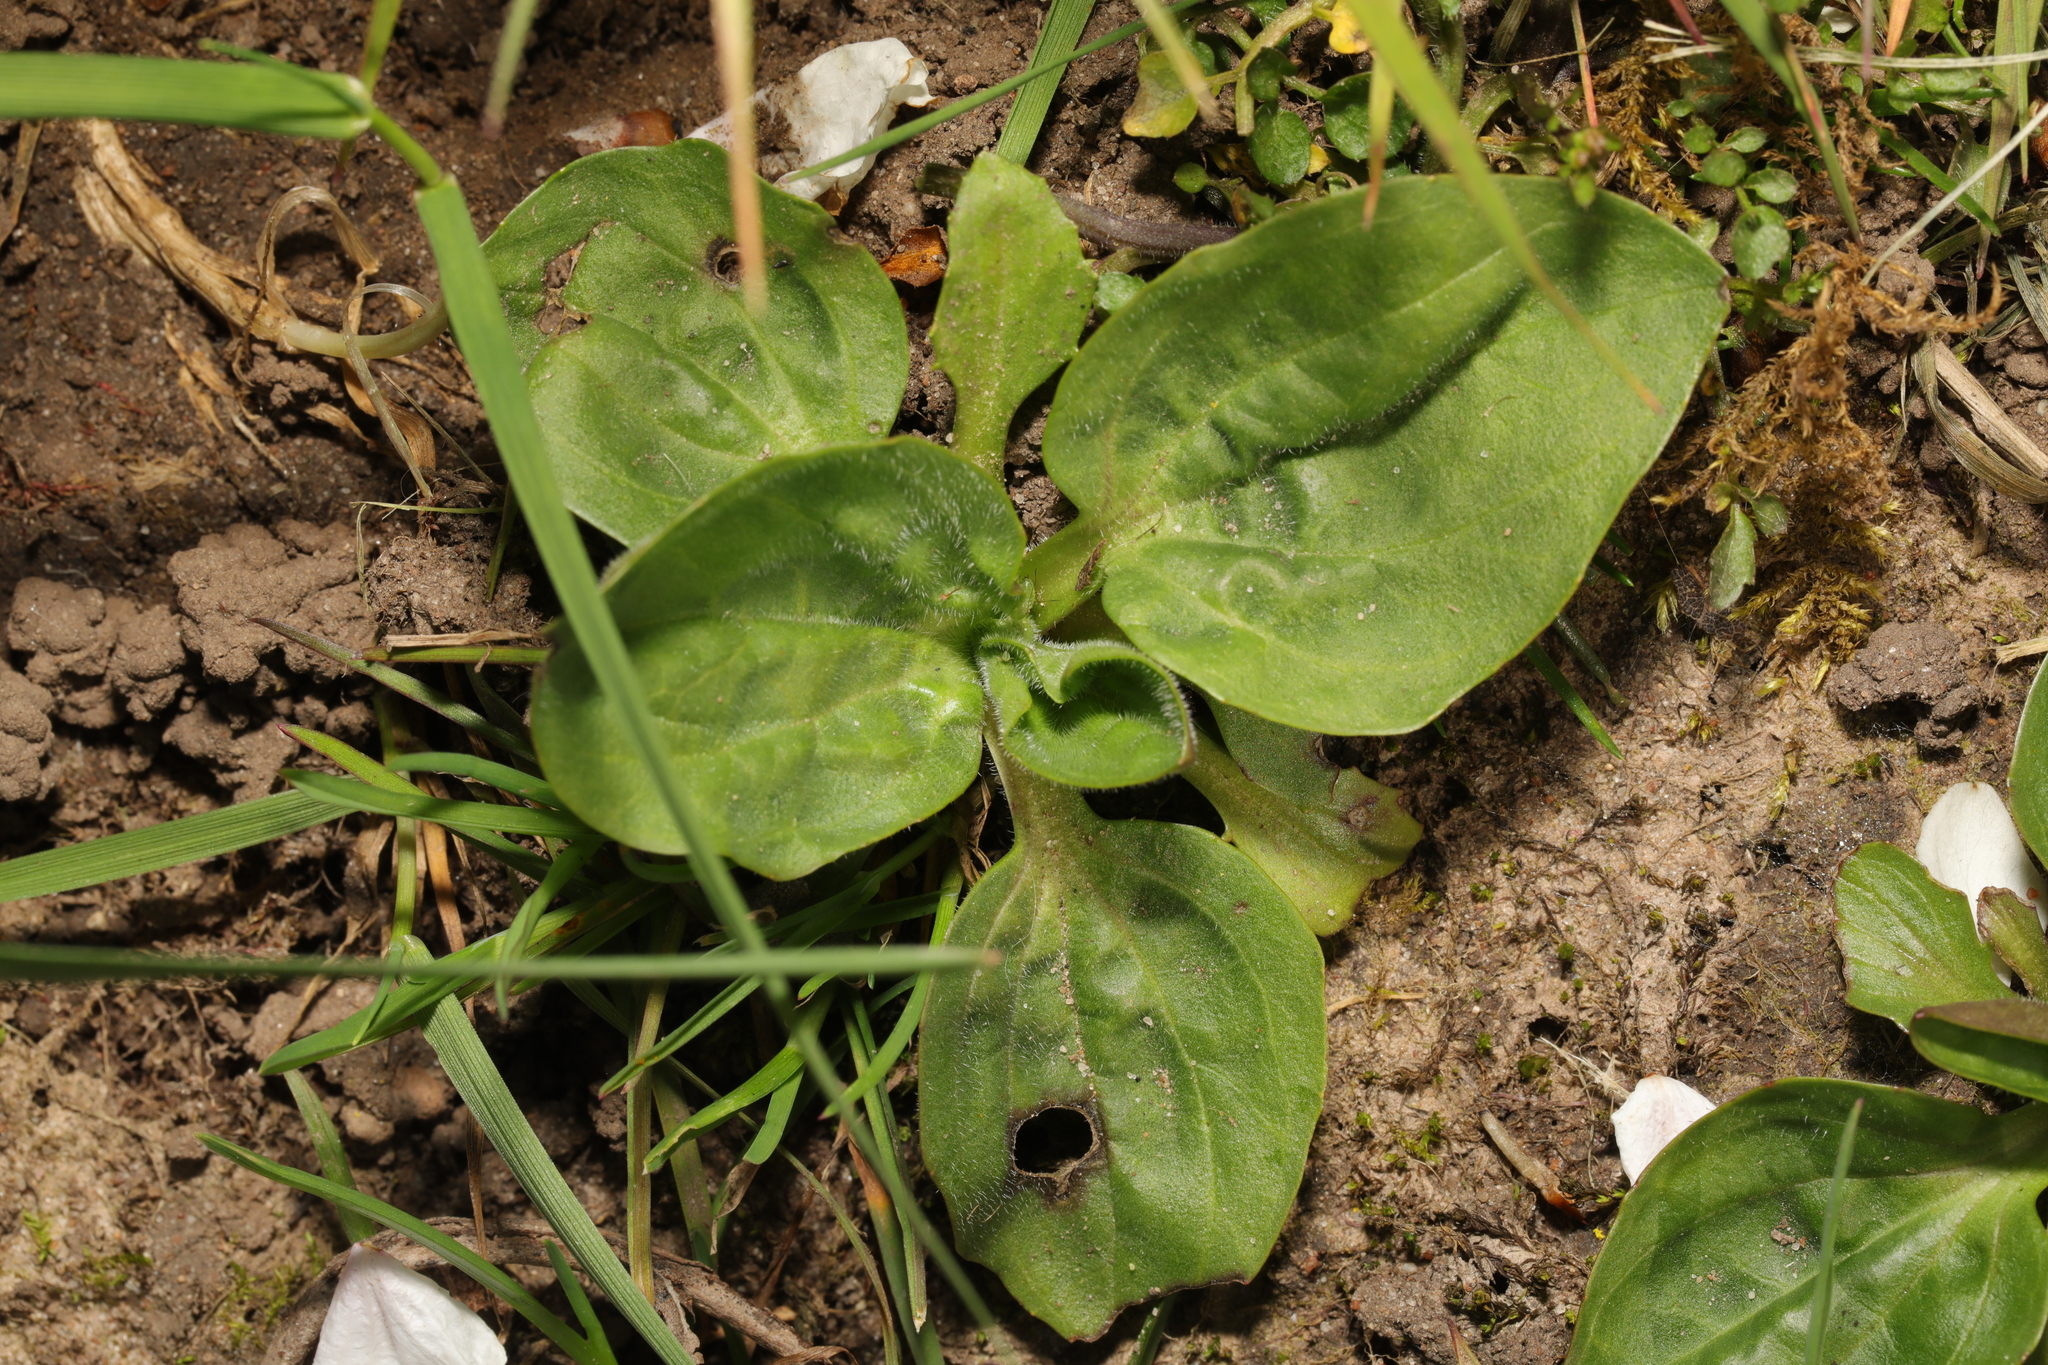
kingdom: Plantae
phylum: Tracheophyta
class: Magnoliopsida
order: Lamiales
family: Plantaginaceae
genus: Plantago
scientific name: Plantago major
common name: Common plantain
